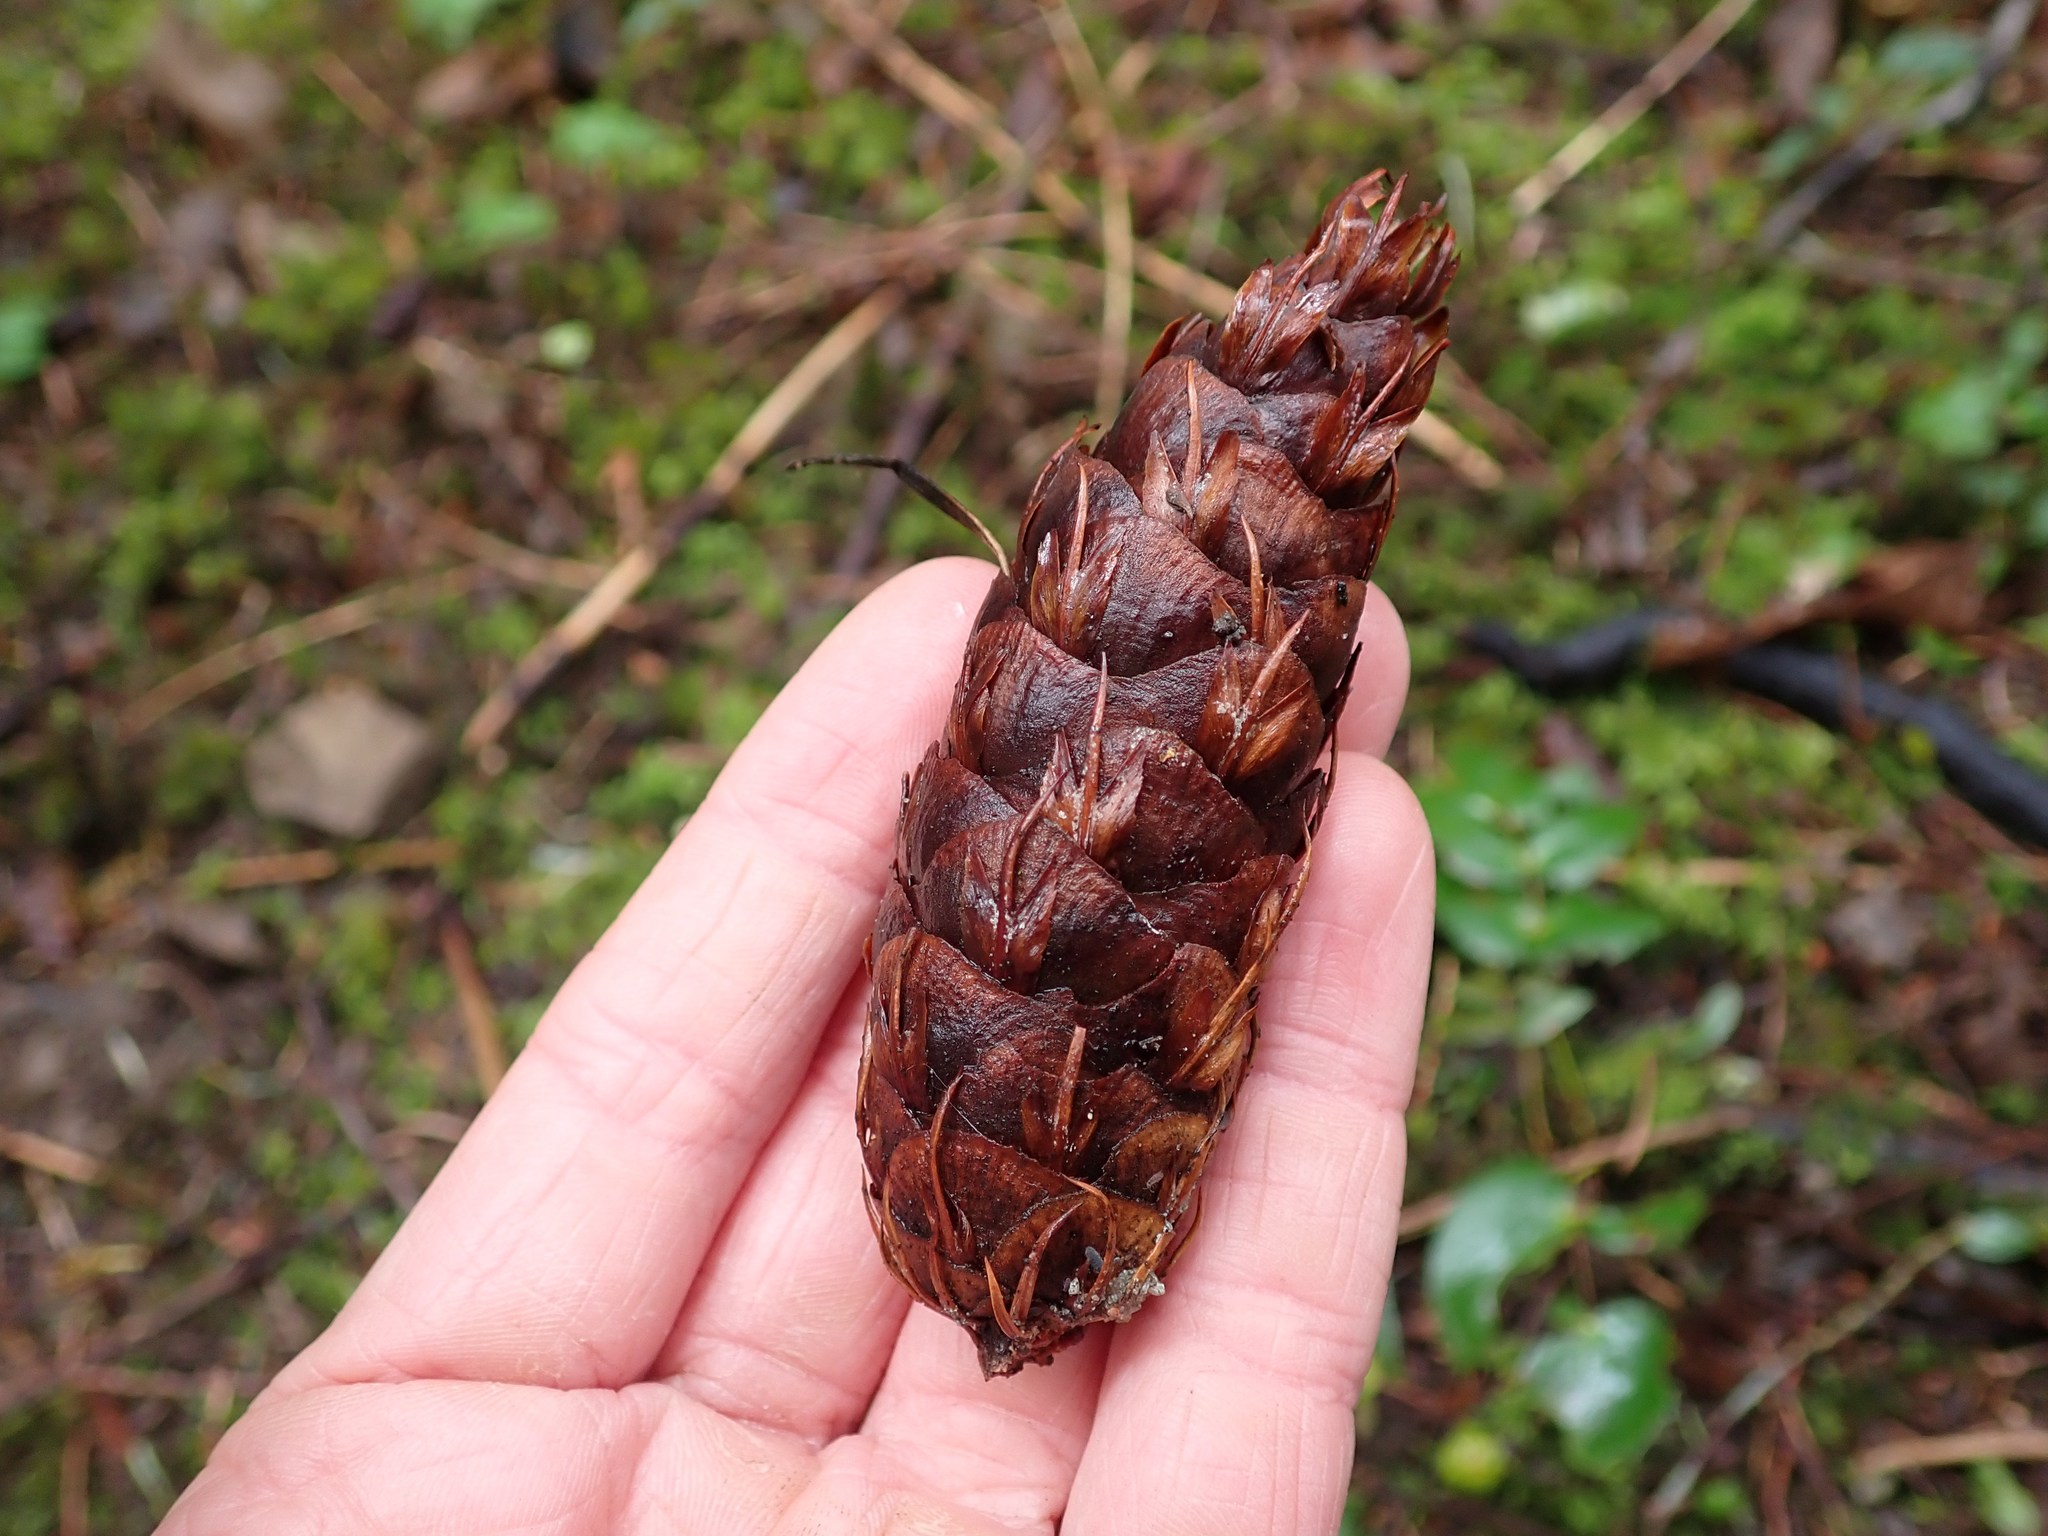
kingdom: Plantae
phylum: Tracheophyta
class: Pinopsida
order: Pinales
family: Pinaceae
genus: Pseudotsuga
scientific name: Pseudotsuga menziesii
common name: Douglas fir
